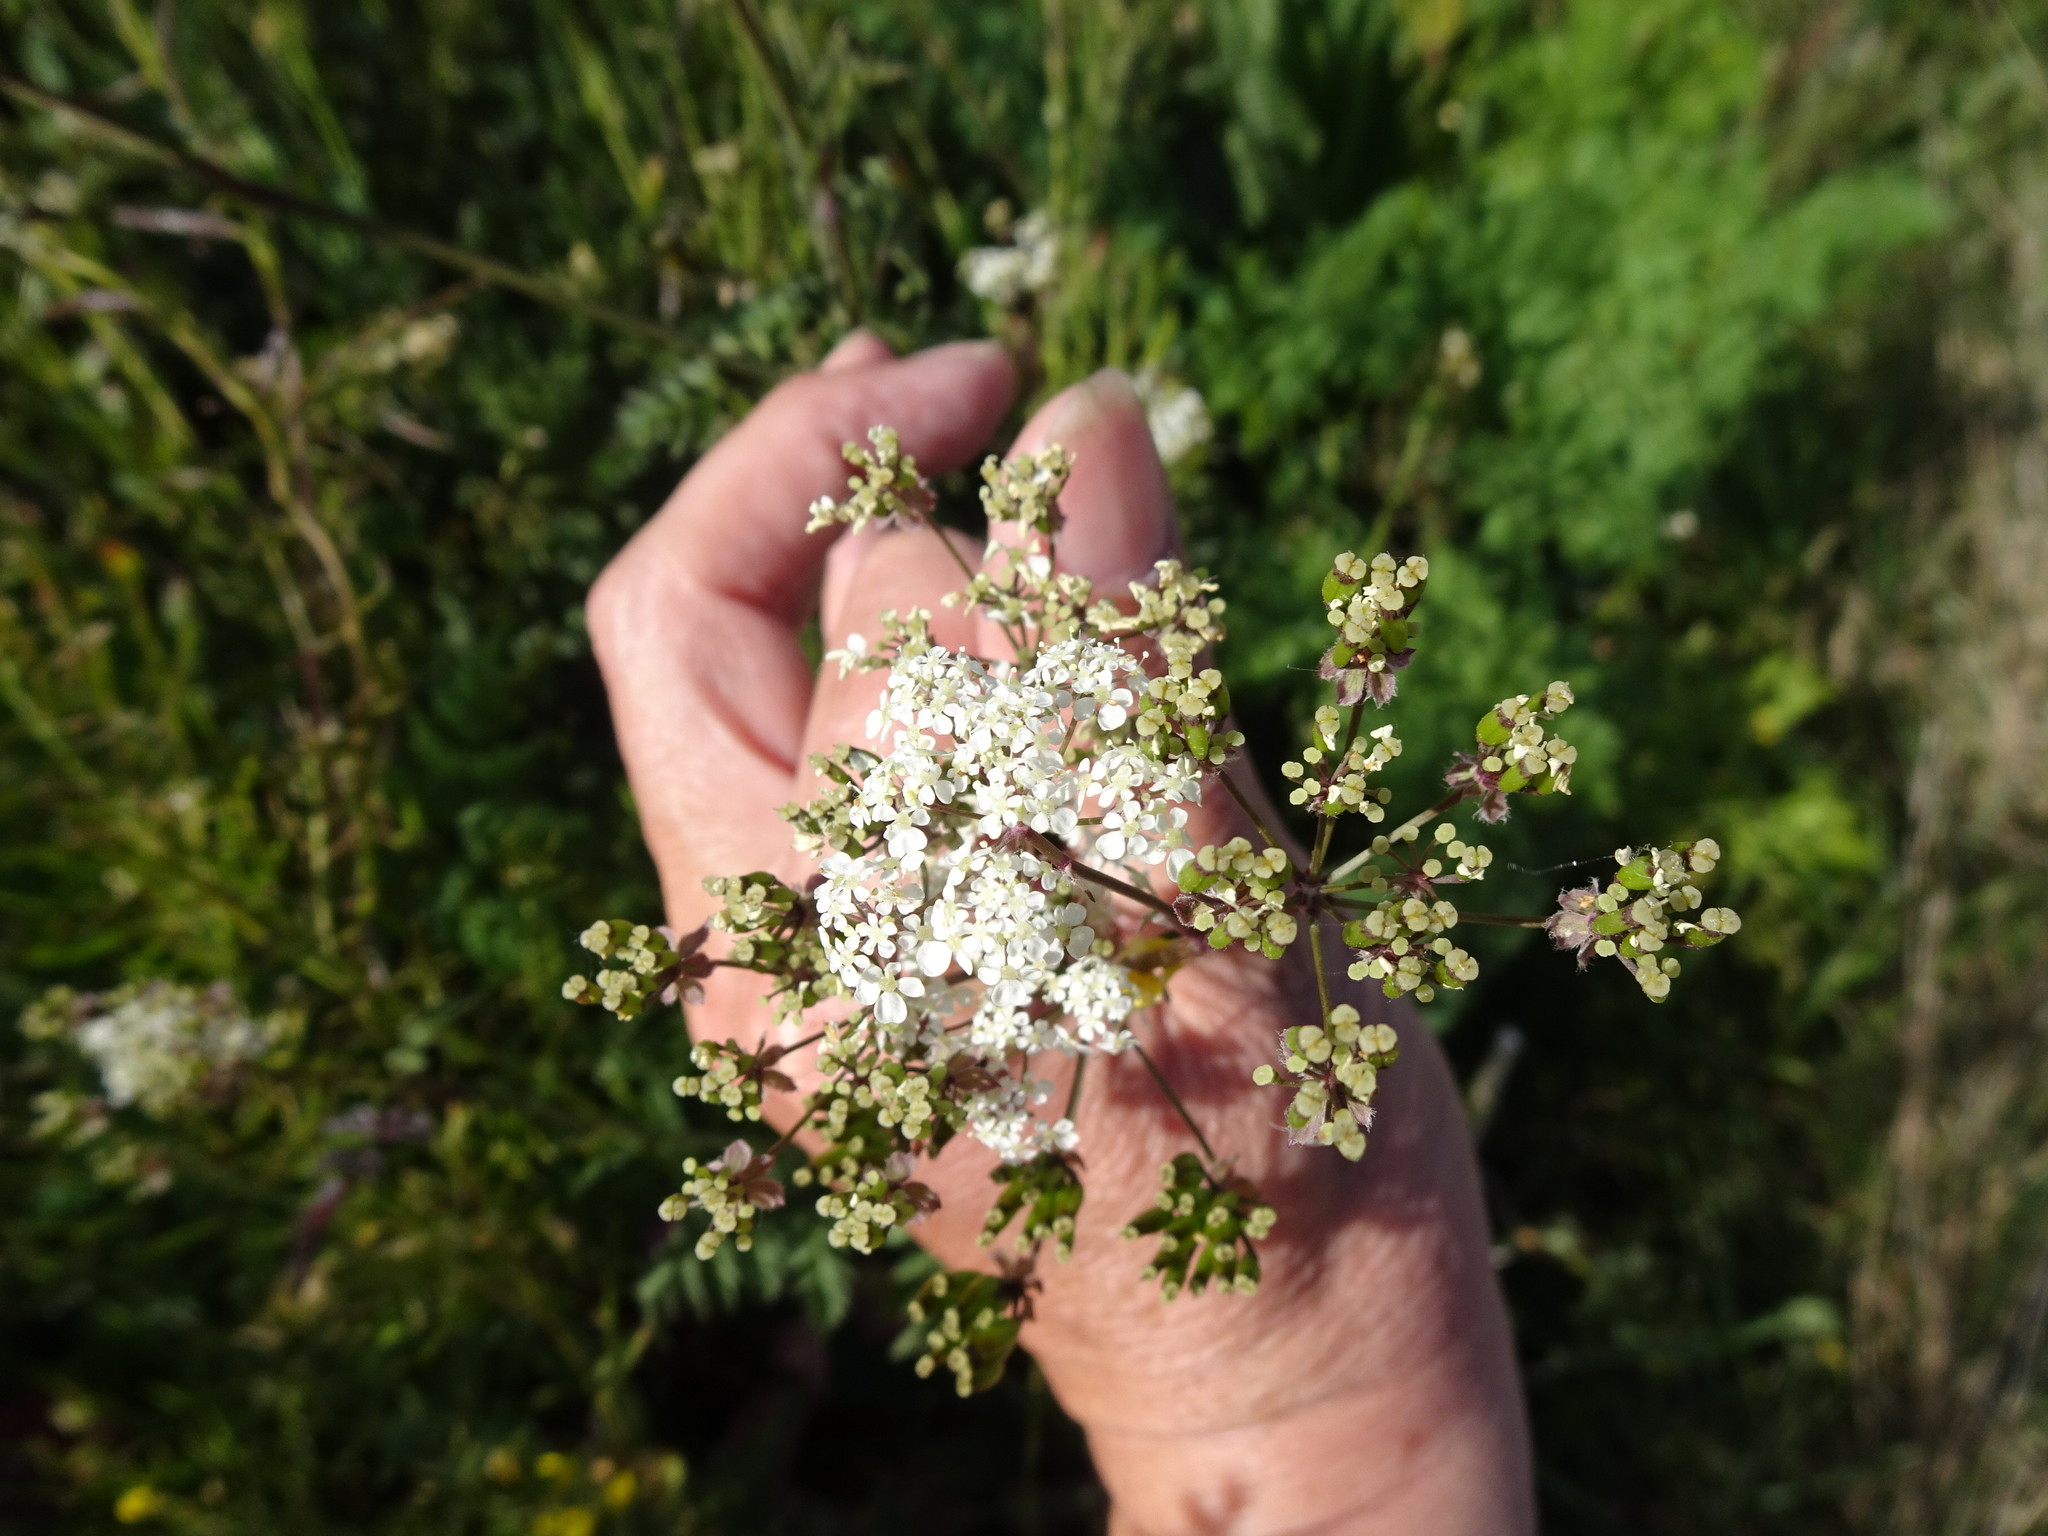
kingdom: Plantae
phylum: Tracheophyta
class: Magnoliopsida
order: Apiales
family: Apiaceae
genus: Anthriscus
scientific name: Anthriscus sylvestris
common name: Cow parsley
